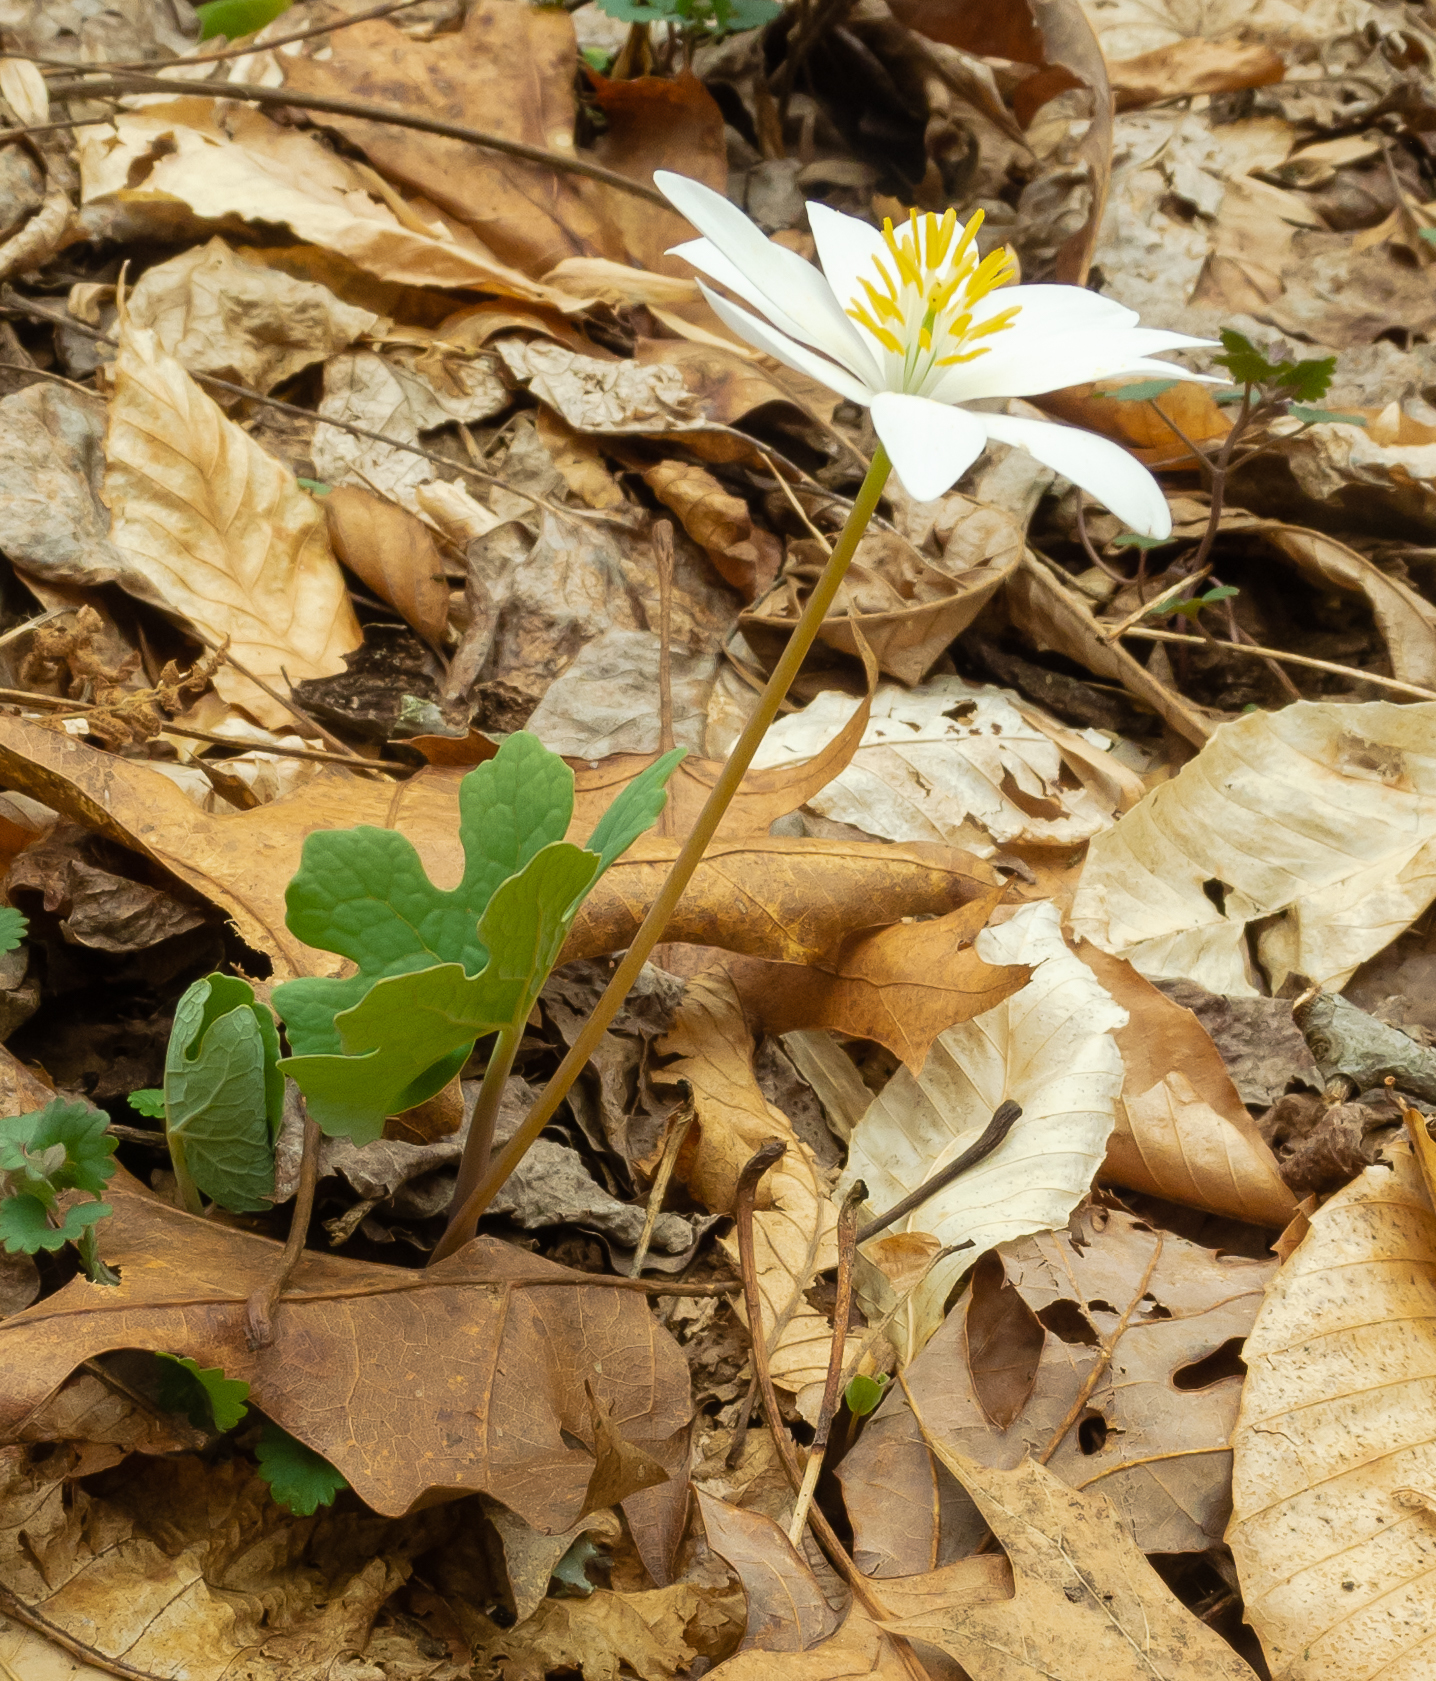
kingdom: Plantae
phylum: Tracheophyta
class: Magnoliopsida
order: Ranunculales
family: Papaveraceae
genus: Sanguinaria
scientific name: Sanguinaria canadensis
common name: Bloodroot
